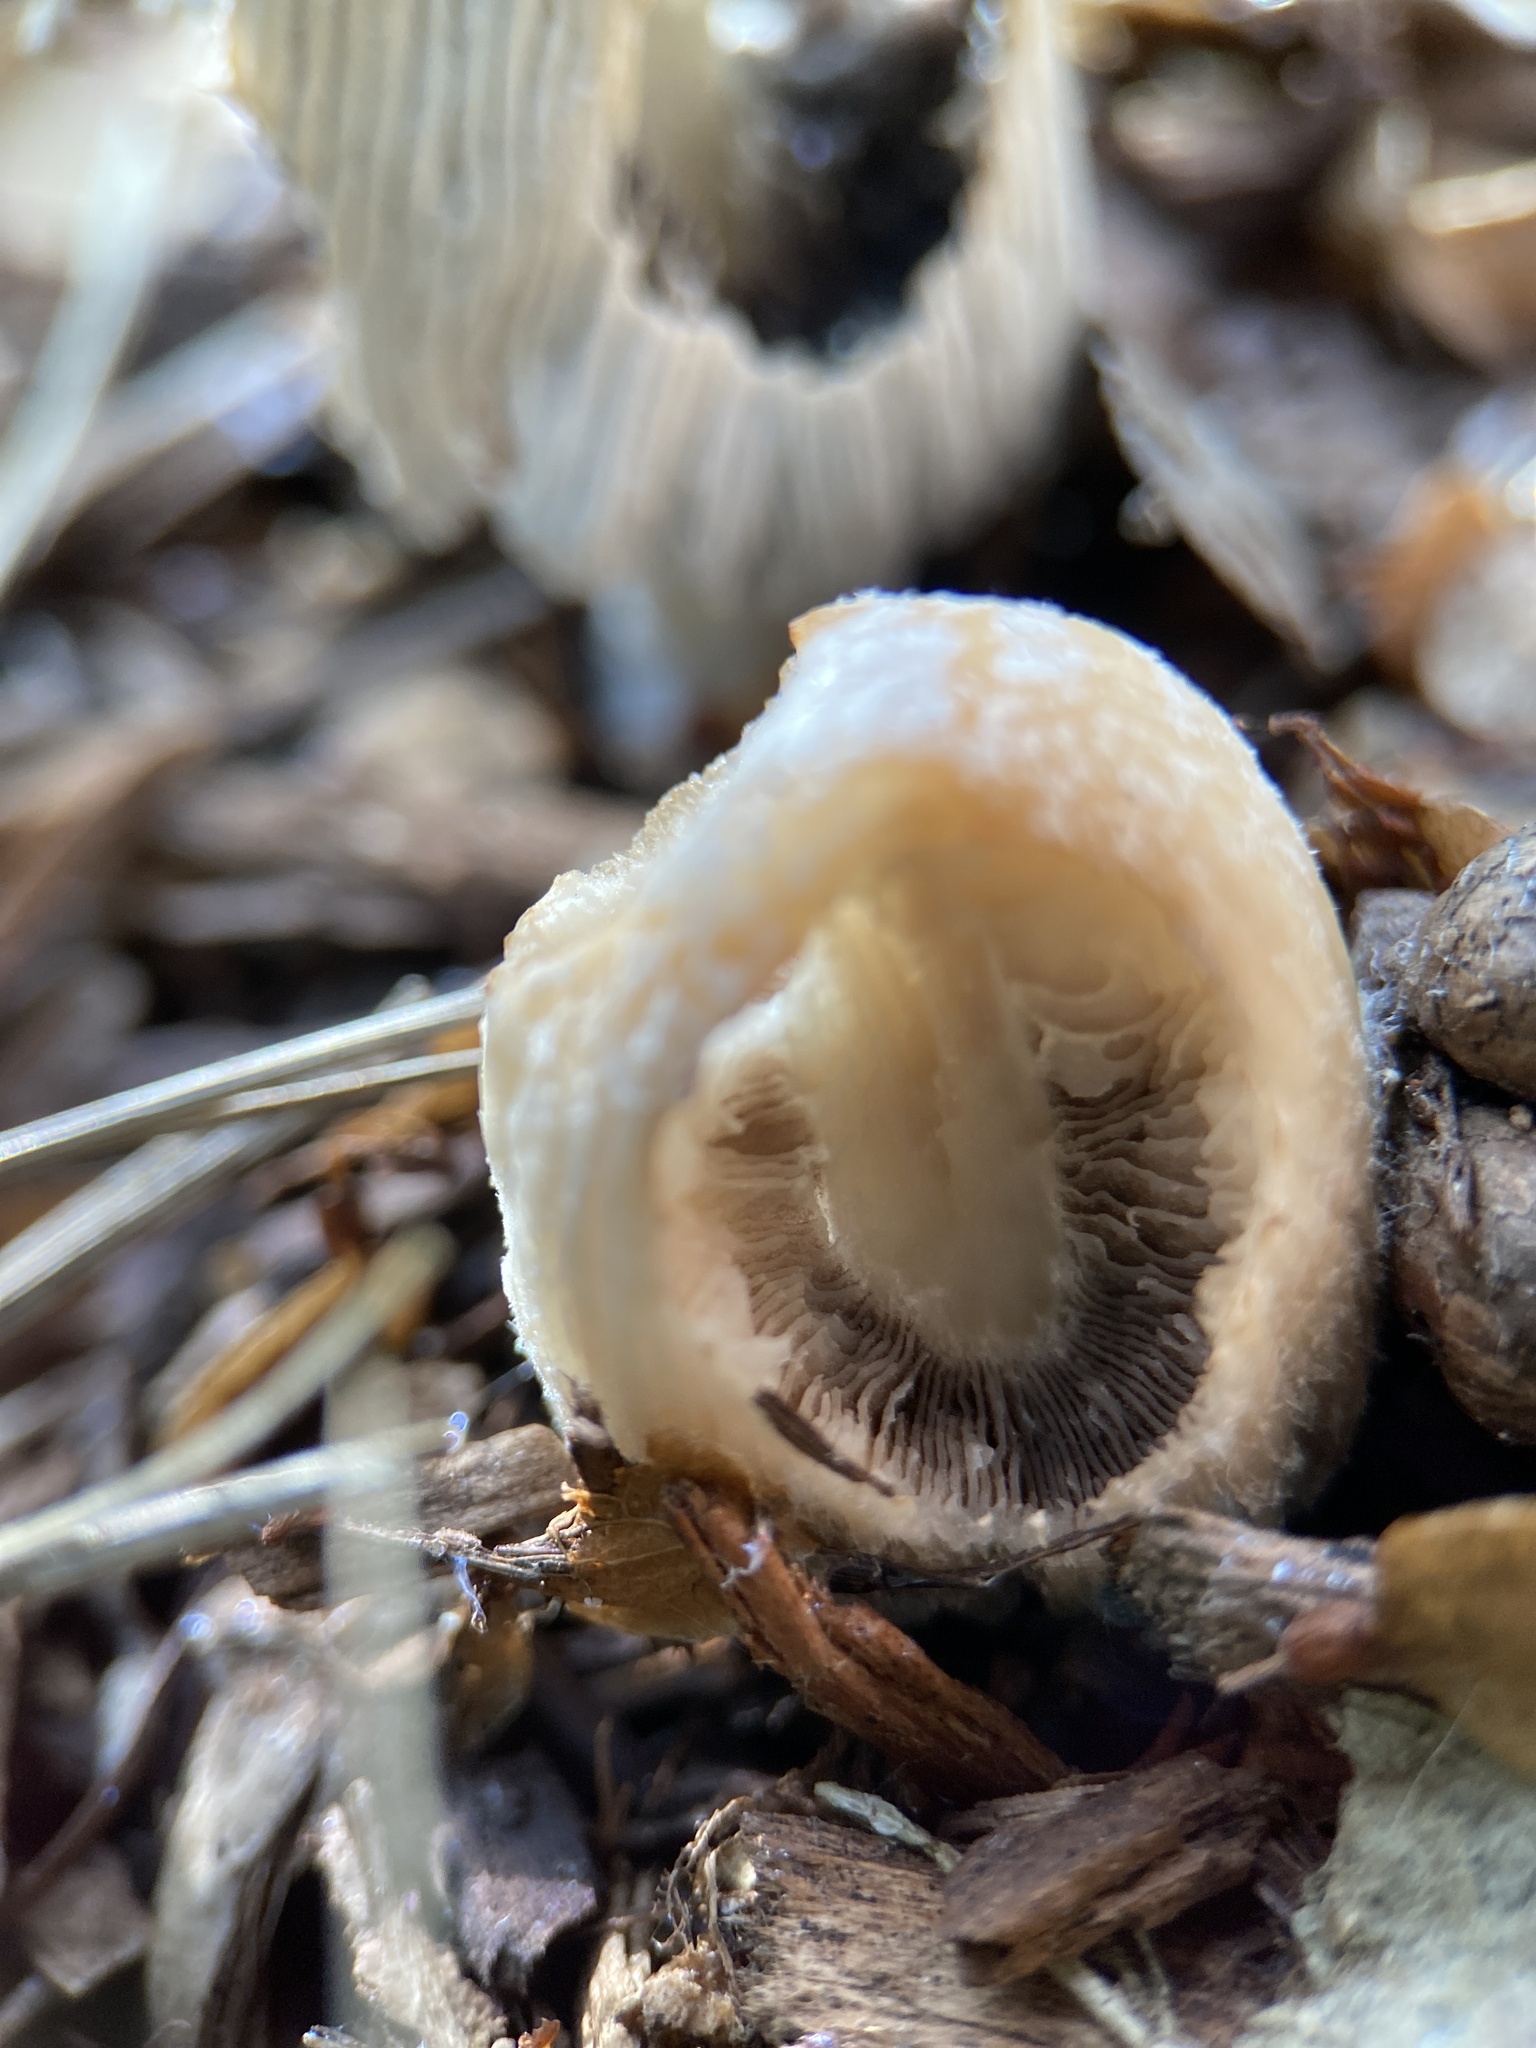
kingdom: Fungi
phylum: Basidiomycota
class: Agaricomycetes
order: Agaricales
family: Psathyrellaceae
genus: Coprinellus
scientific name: Coprinellus flocculosus
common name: Flocculose inkcap
